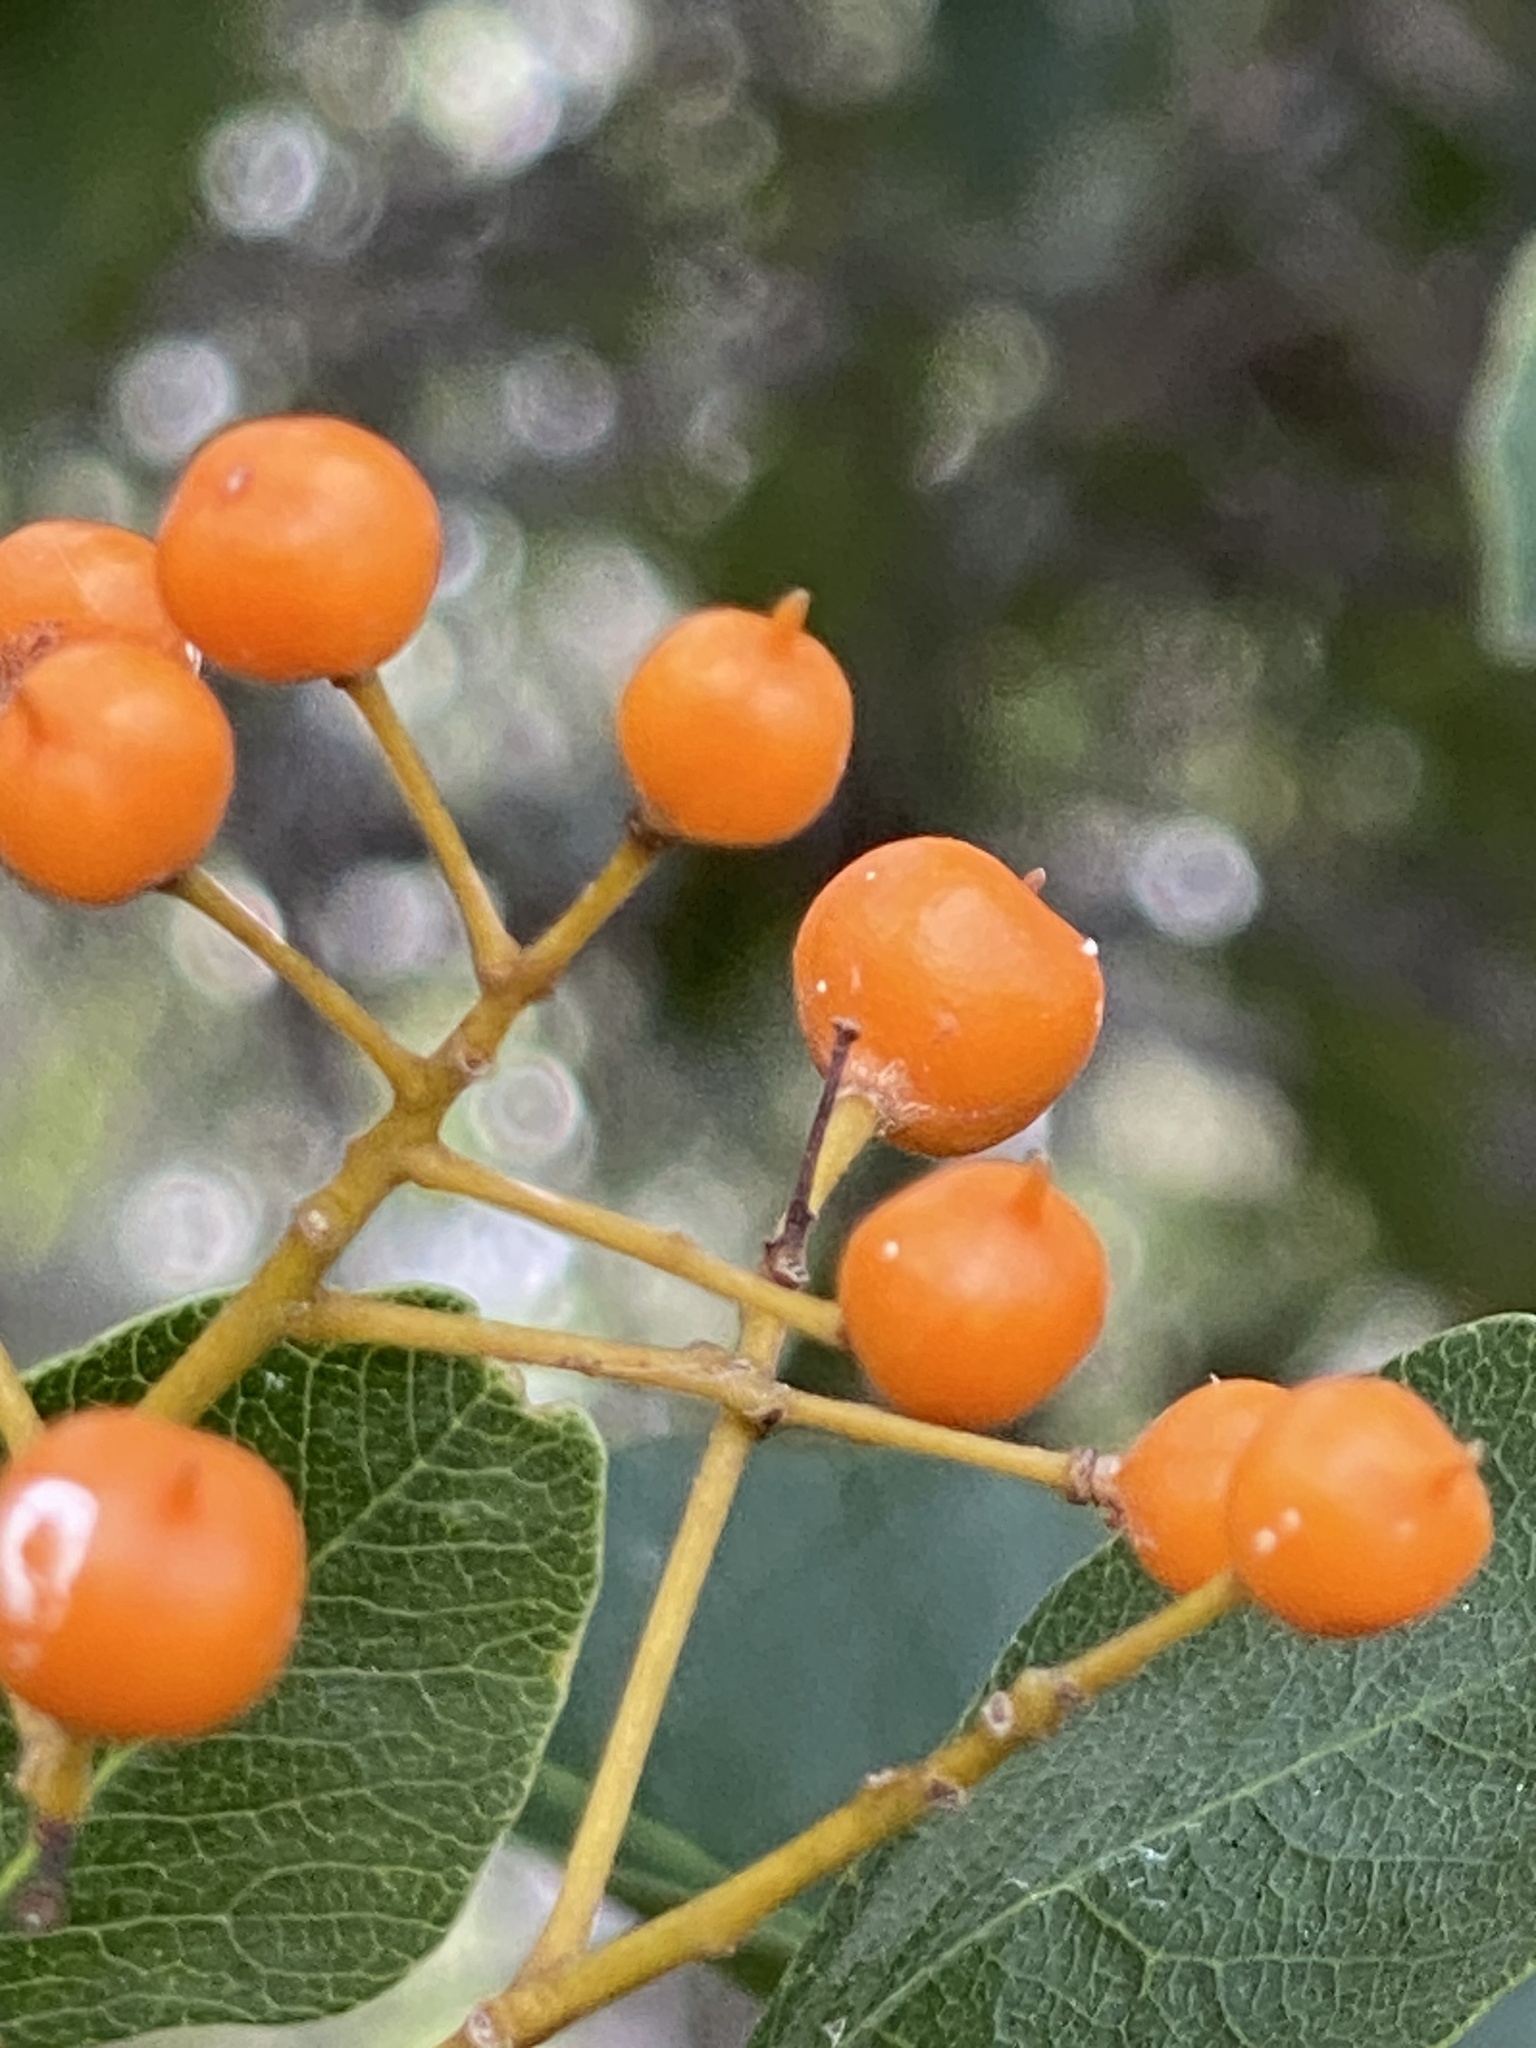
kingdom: Plantae
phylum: Tracheophyta
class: Magnoliopsida
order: Apiales
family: Pittosporaceae
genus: Auranticarpa
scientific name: Auranticarpa rhombifolia
